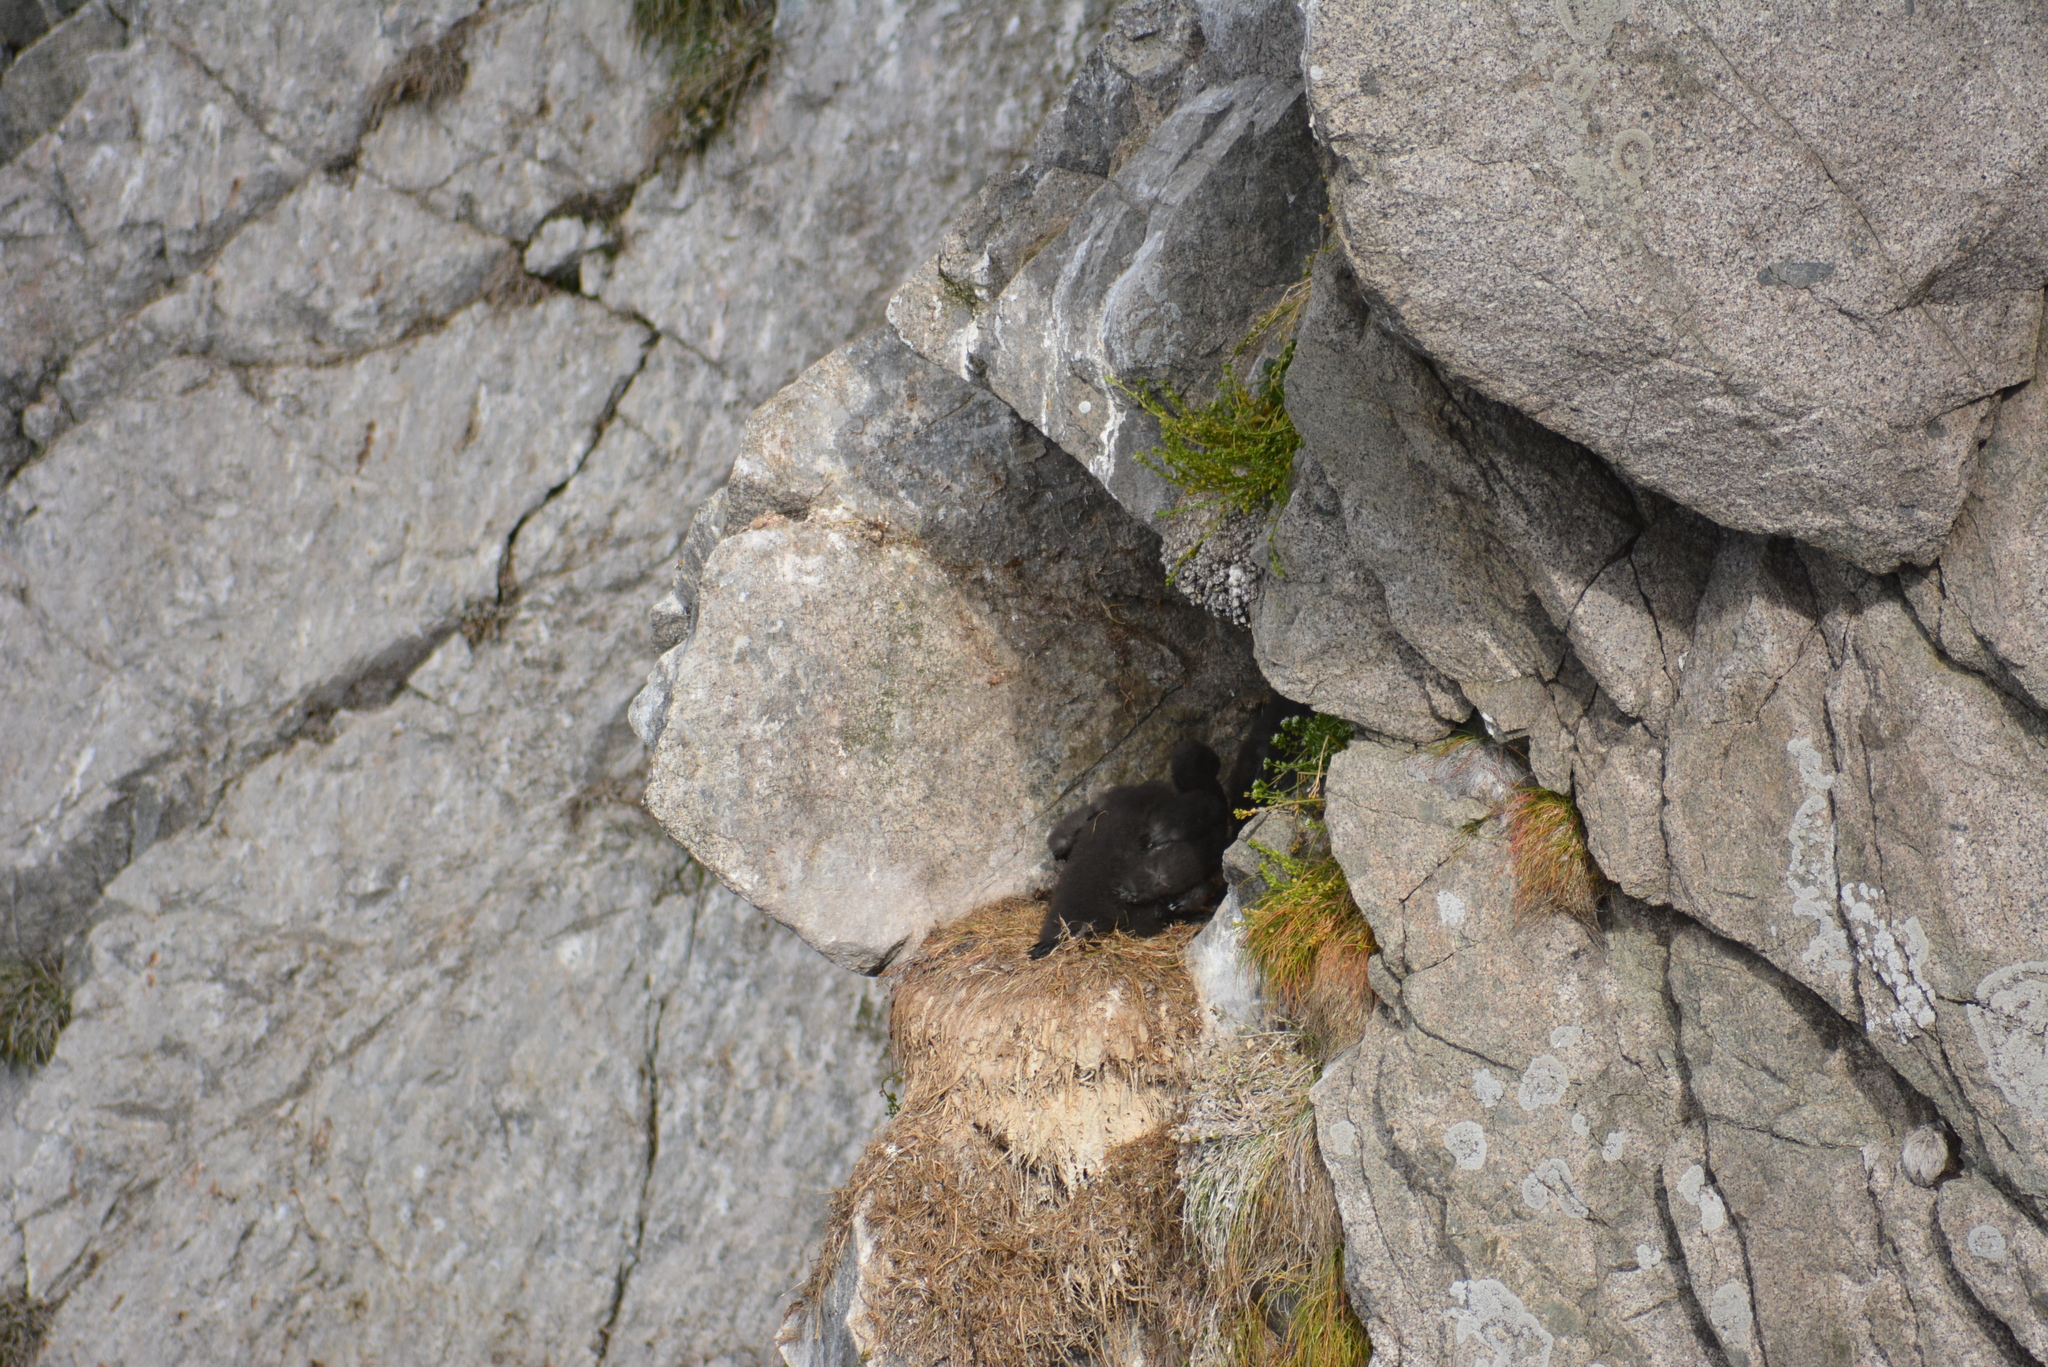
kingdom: Animalia
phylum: Chordata
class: Aves
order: Suliformes
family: Phalacrocoracidae
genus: Phalacrocorax
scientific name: Phalacrocorax pelagicus
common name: Pelagic cormorant
